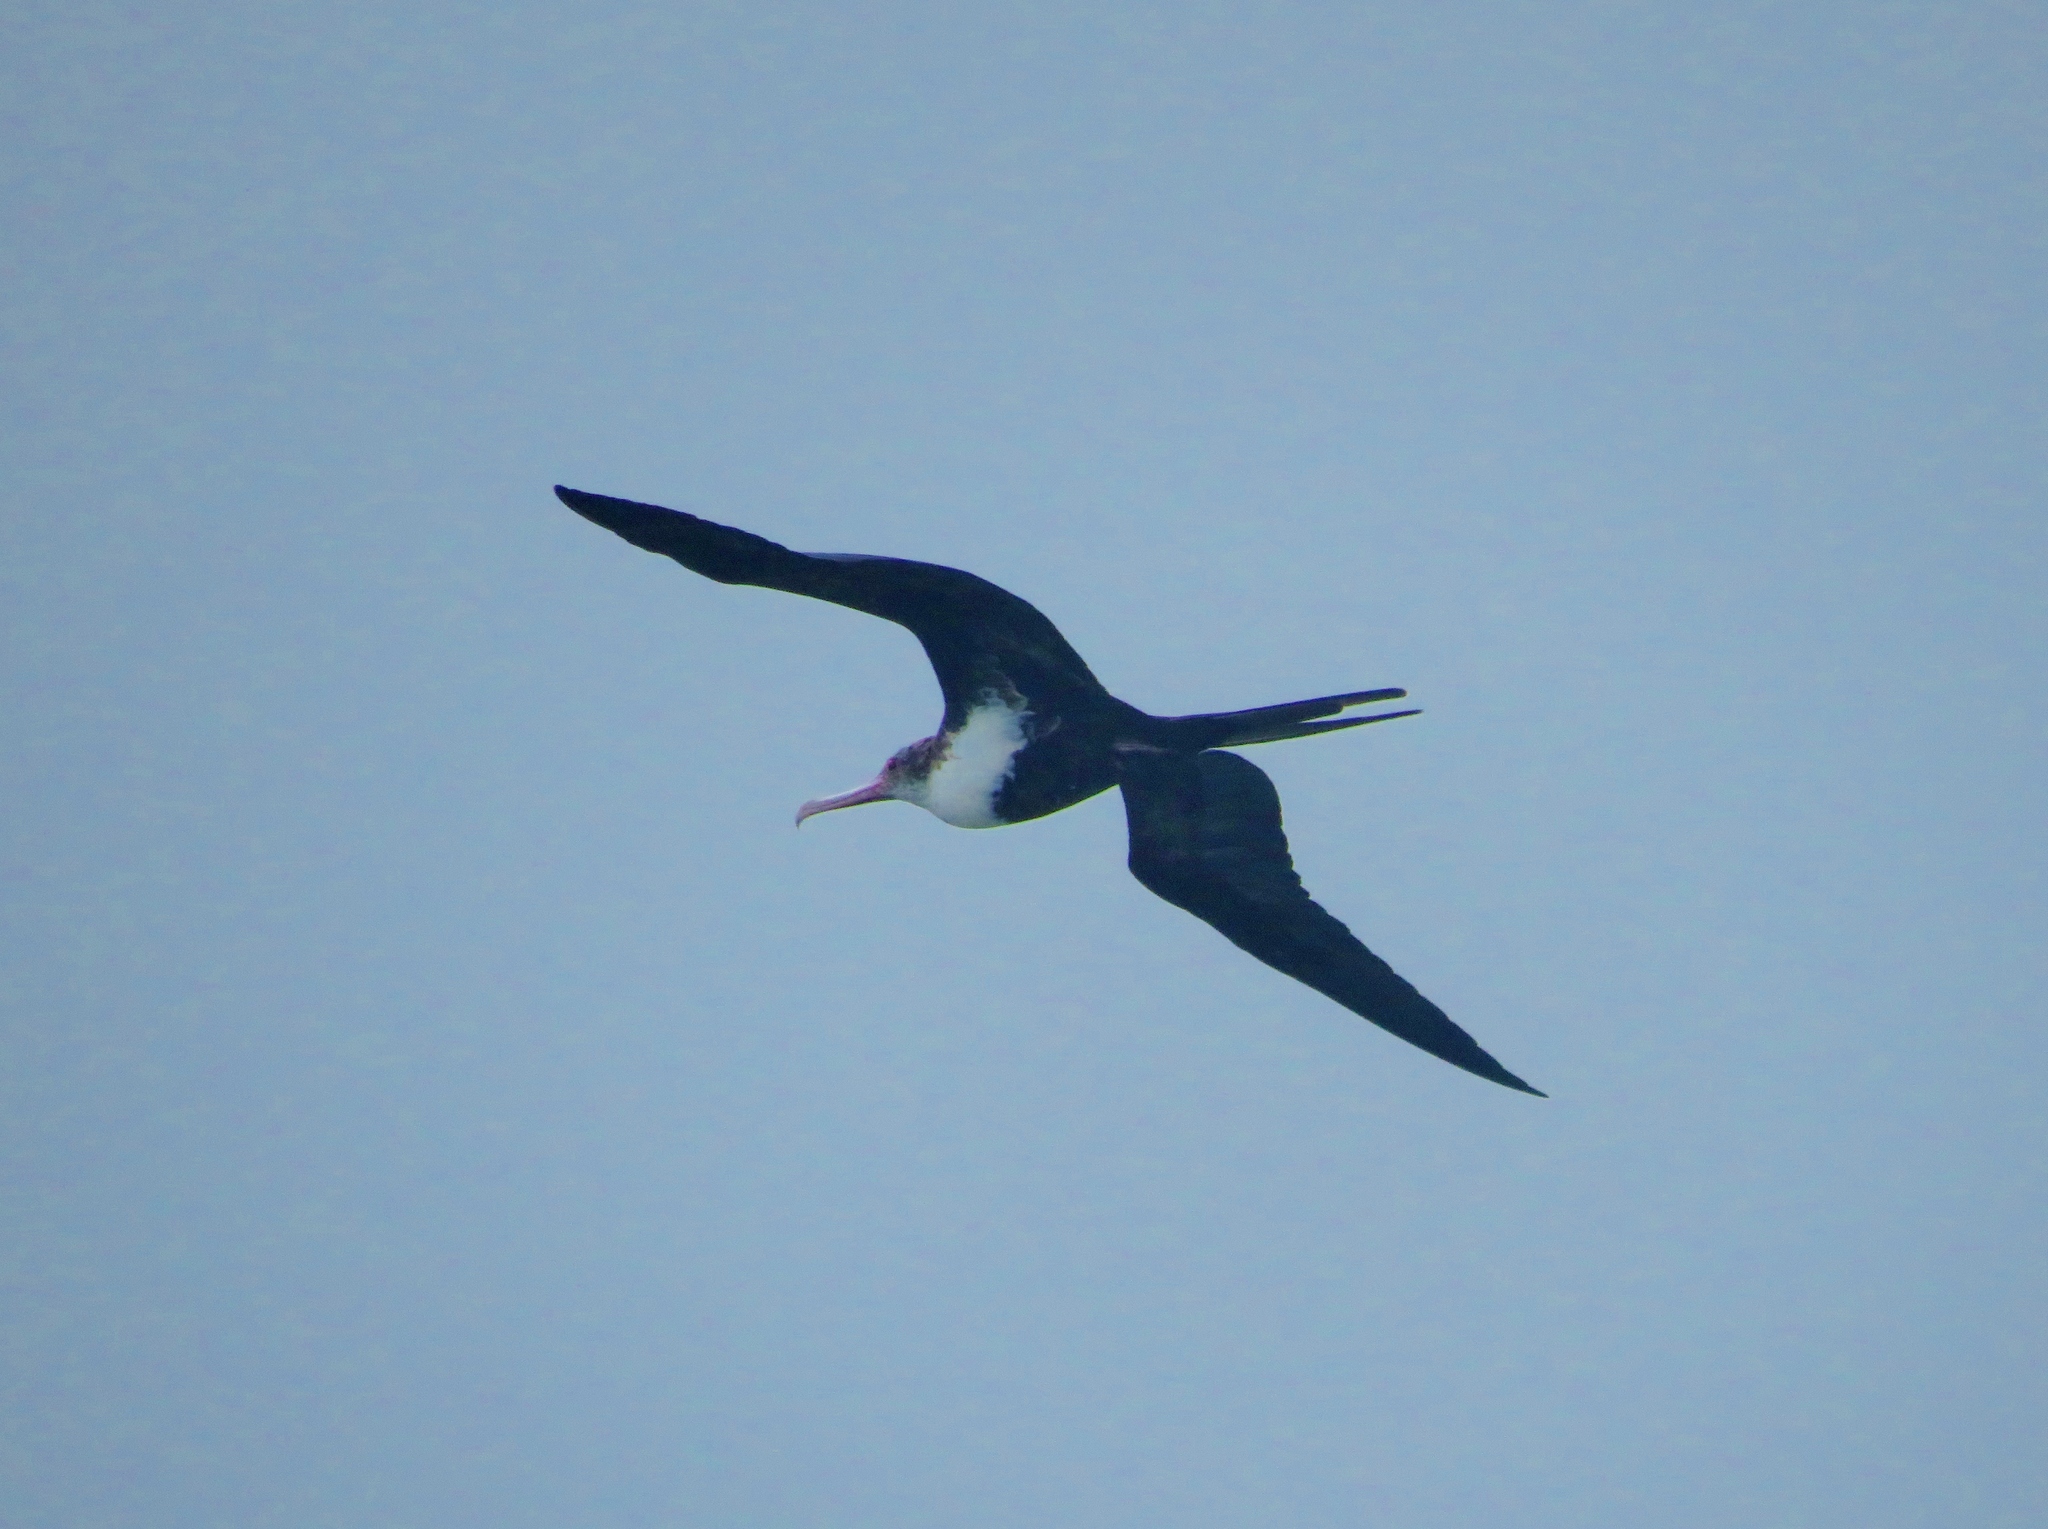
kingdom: Animalia
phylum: Chordata
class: Aves
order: Suliformes
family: Fregatidae
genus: Fregata
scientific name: Fregata minor
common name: Great frigatebird
